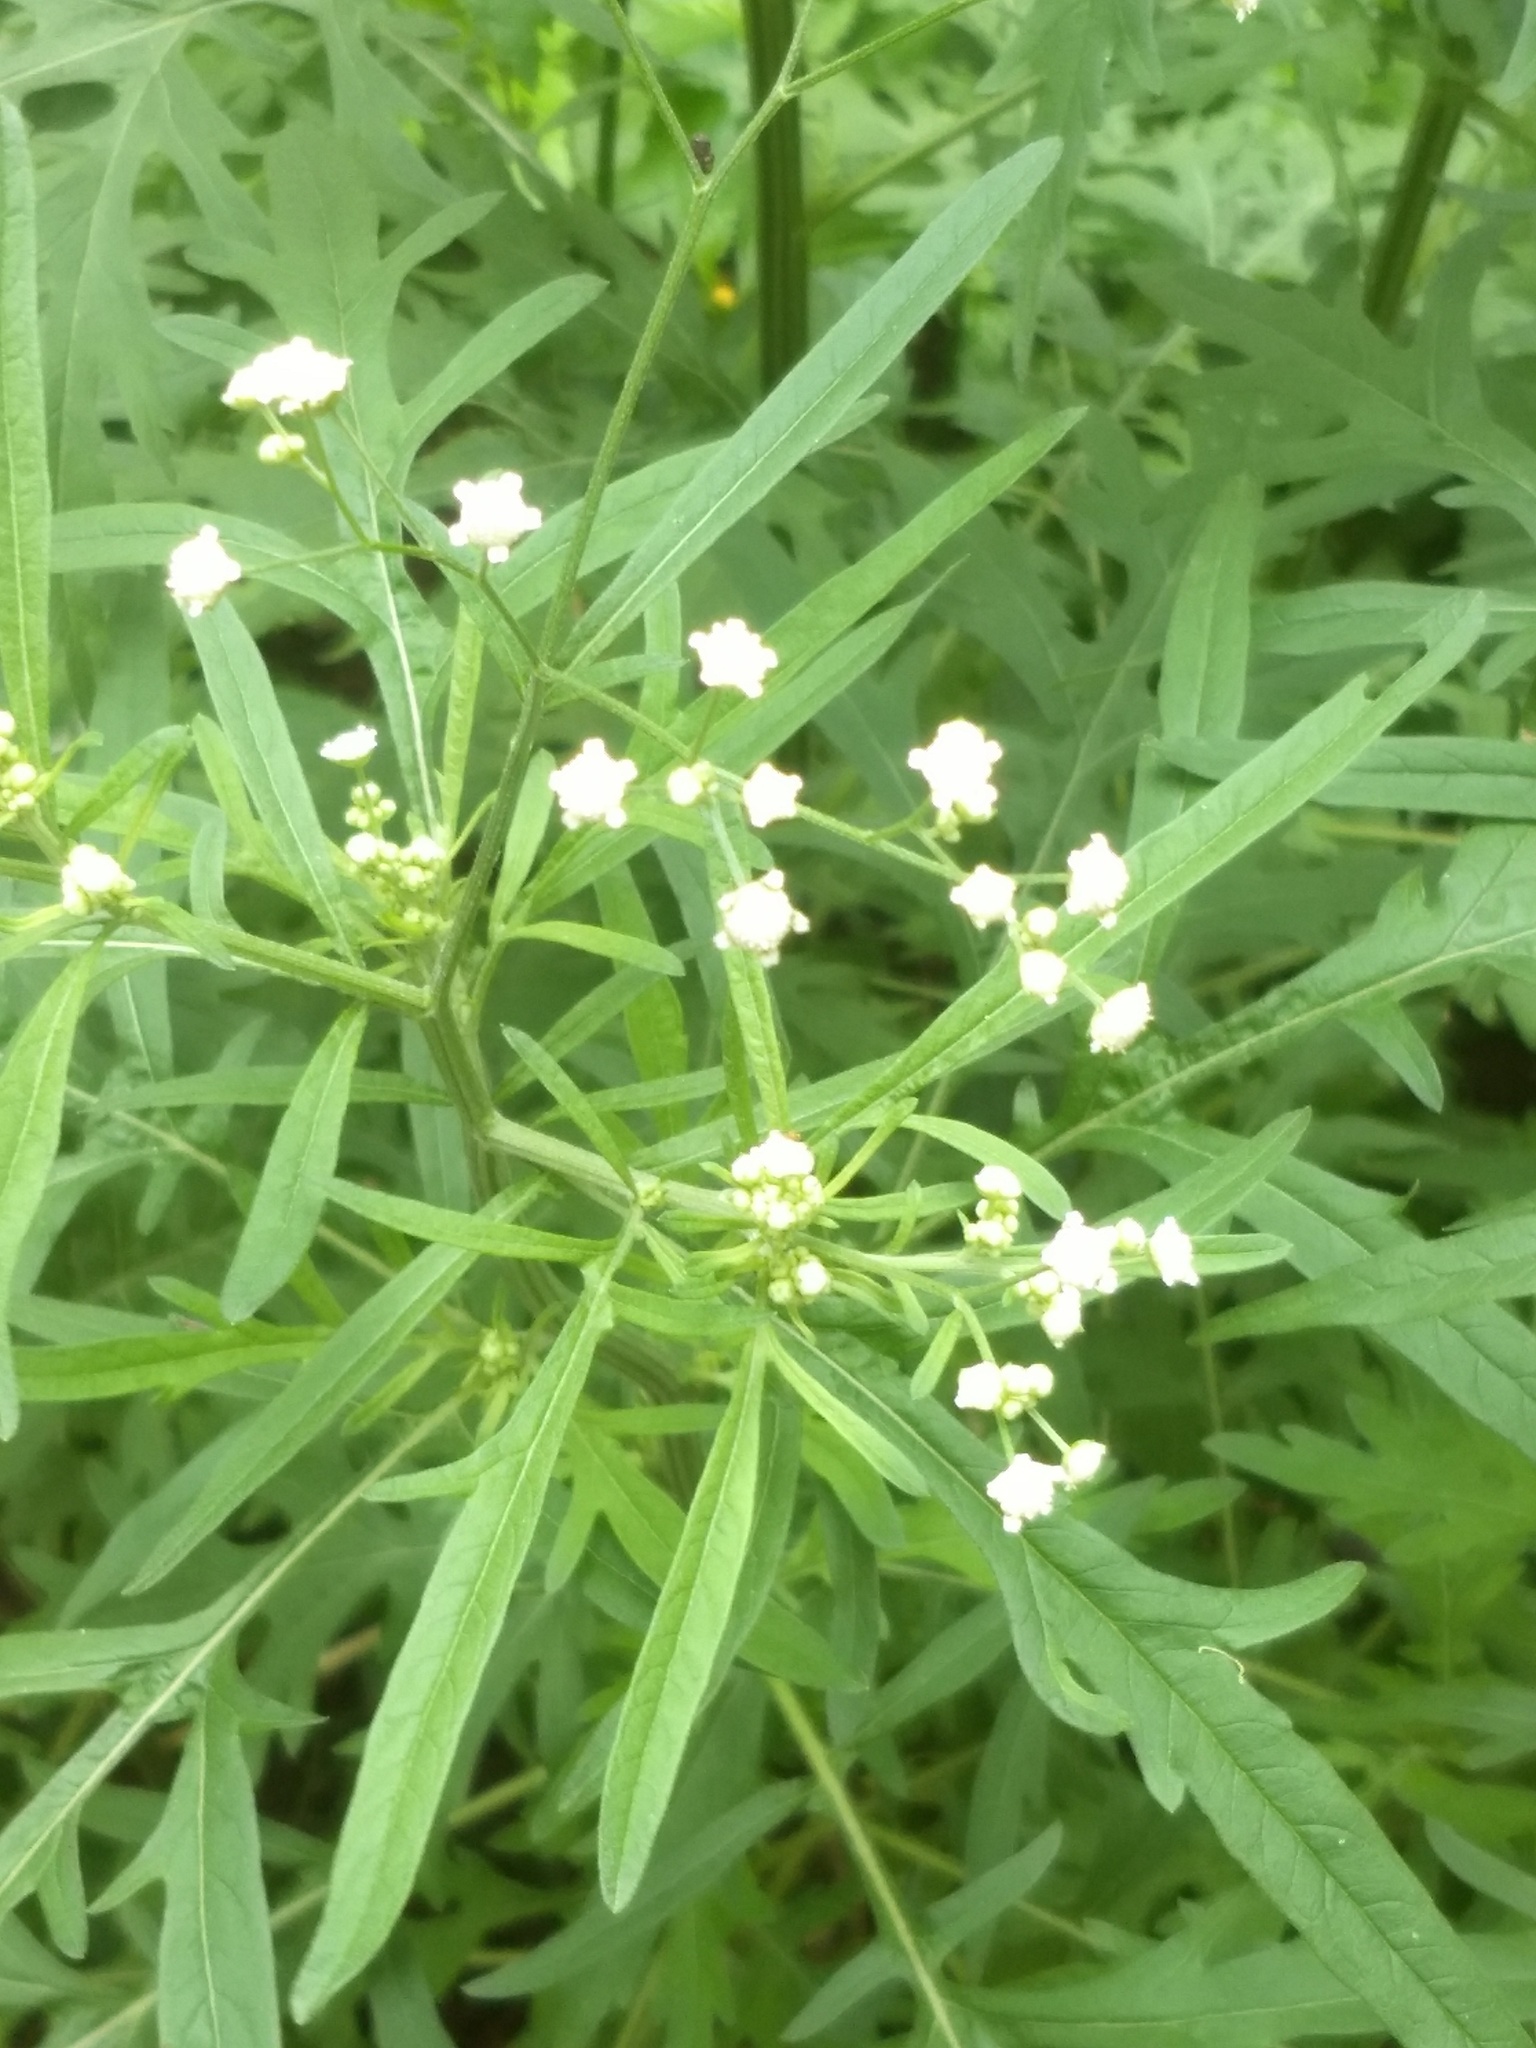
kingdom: Plantae
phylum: Tracheophyta
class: Magnoliopsida
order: Asterales
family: Asteraceae
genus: Parthenium
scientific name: Parthenium hysterophorus
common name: Santa maria feverfew
